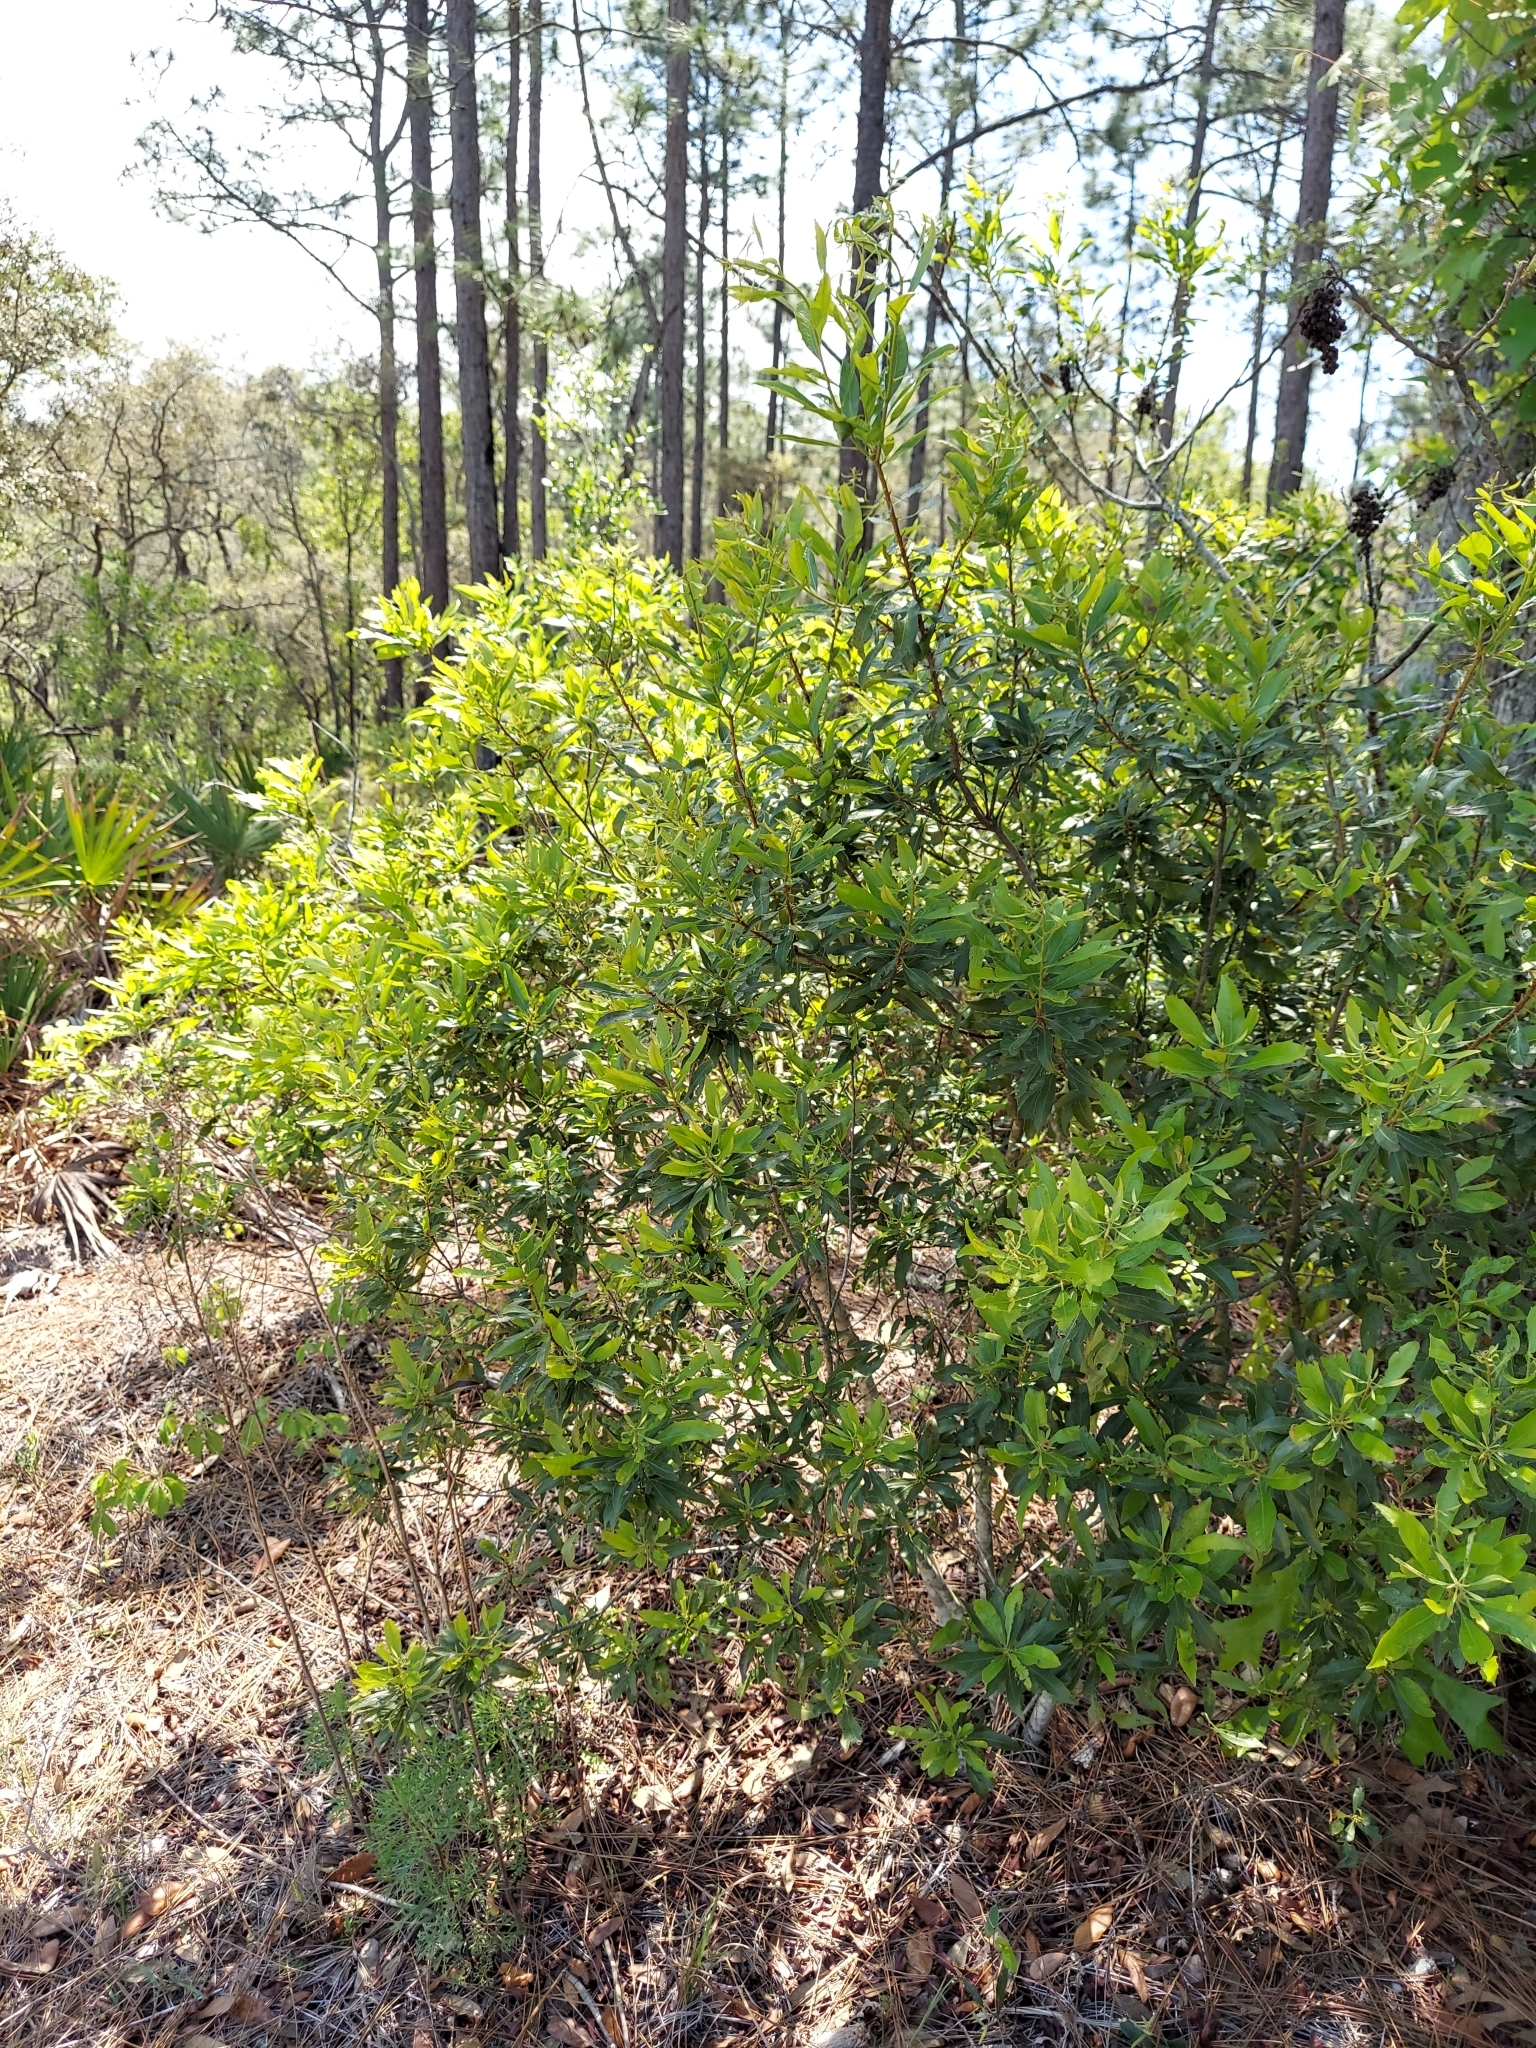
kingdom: Plantae
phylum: Tracheophyta
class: Magnoliopsida
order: Fagales
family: Myricaceae
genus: Morella
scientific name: Morella cerifera
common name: Wax myrtle
